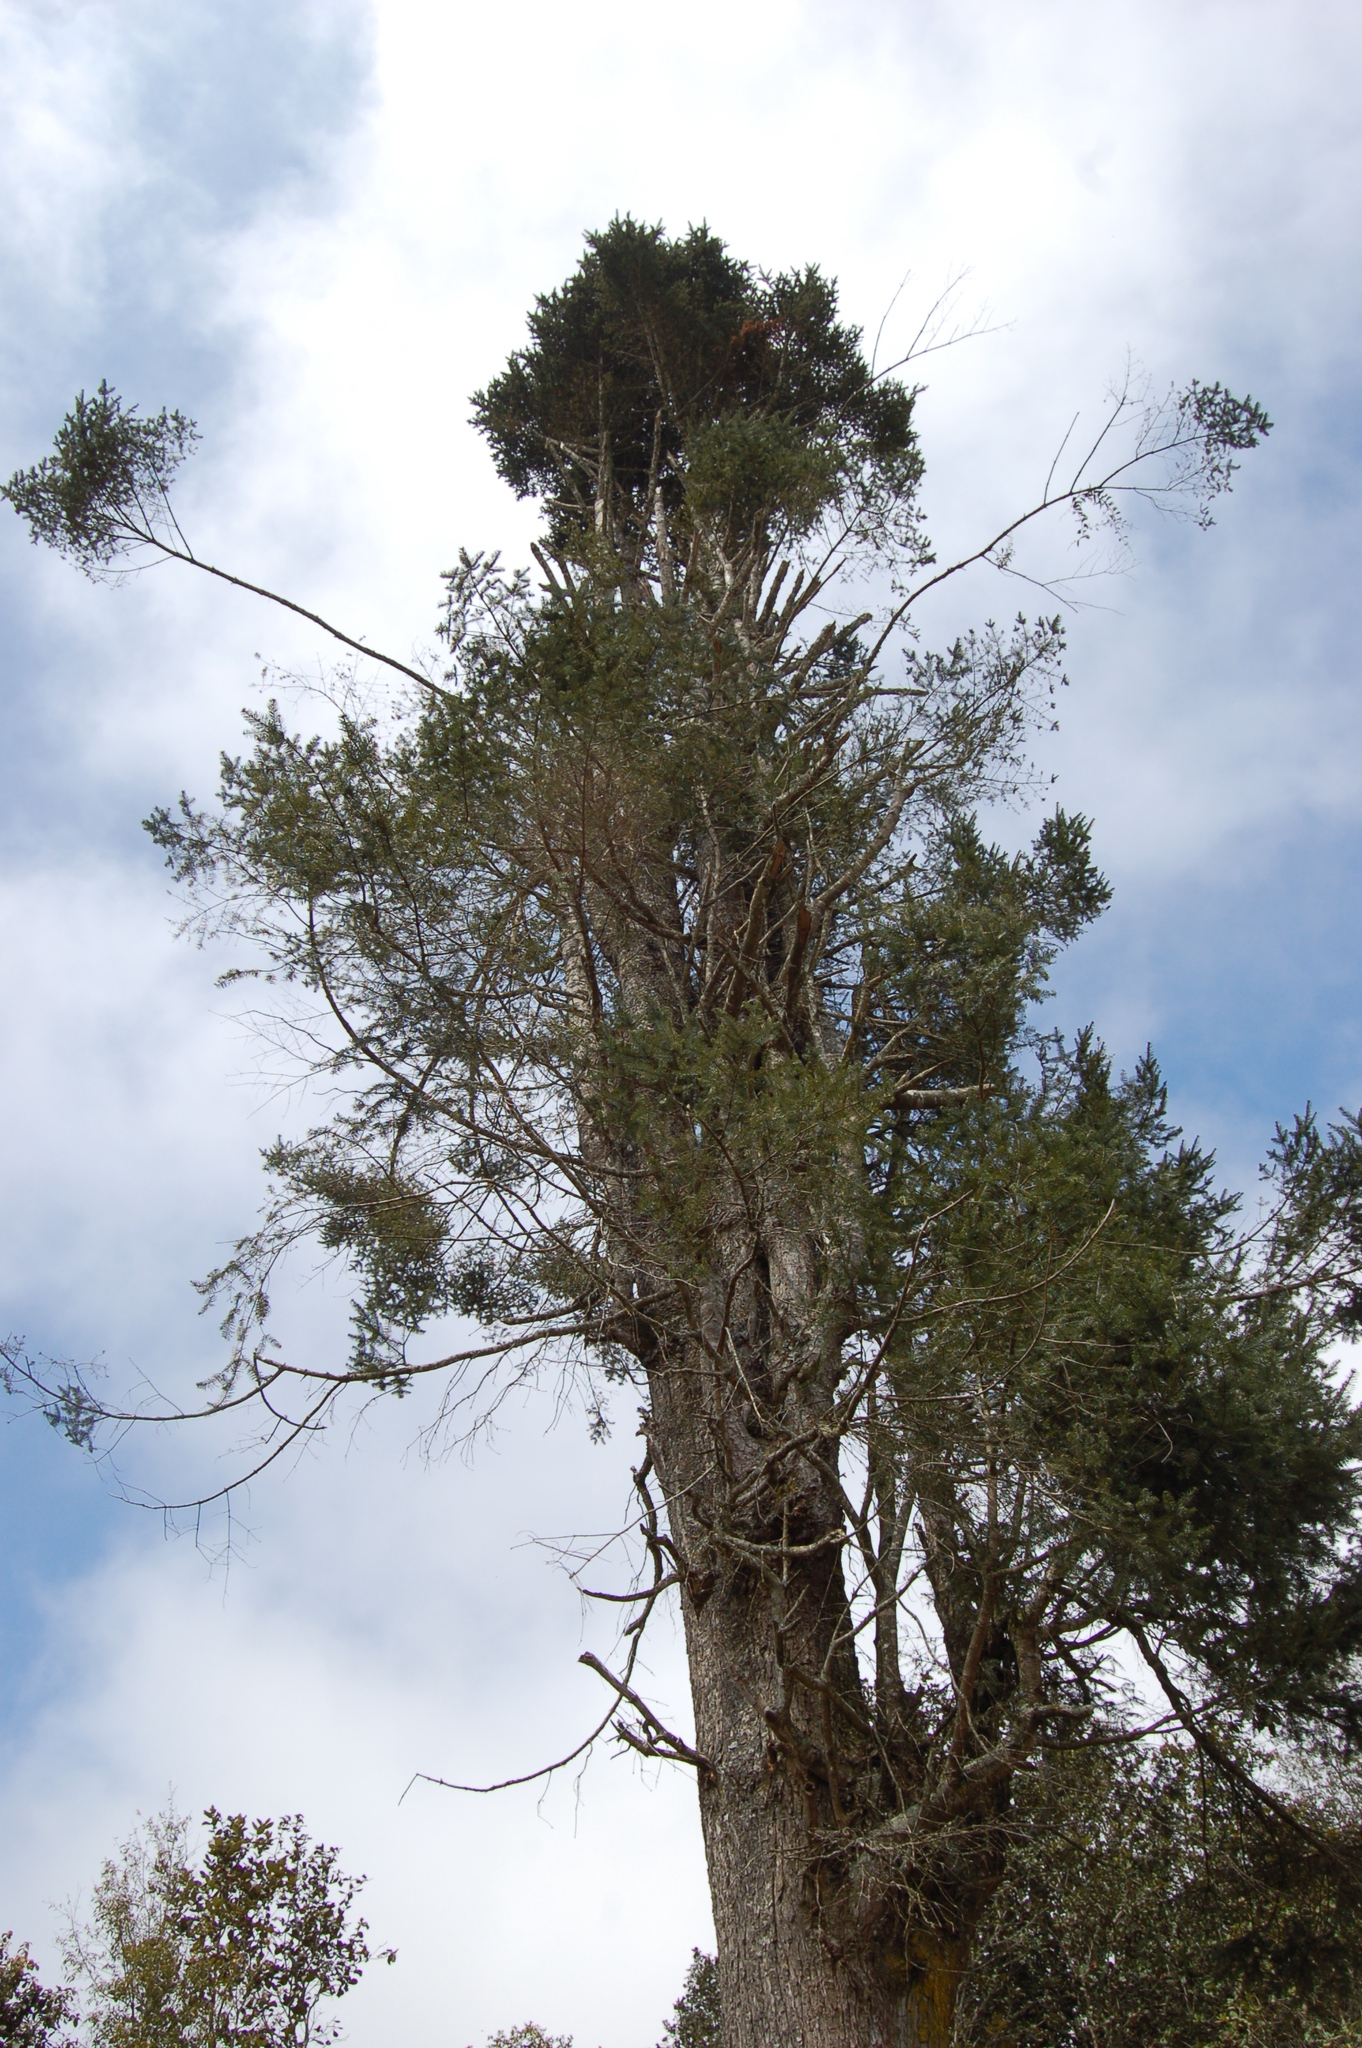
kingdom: Plantae
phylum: Tracheophyta
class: Pinopsida
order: Pinales
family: Pinaceae
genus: Abies
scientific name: Abies guatemalensis
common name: Guatemalan fir
